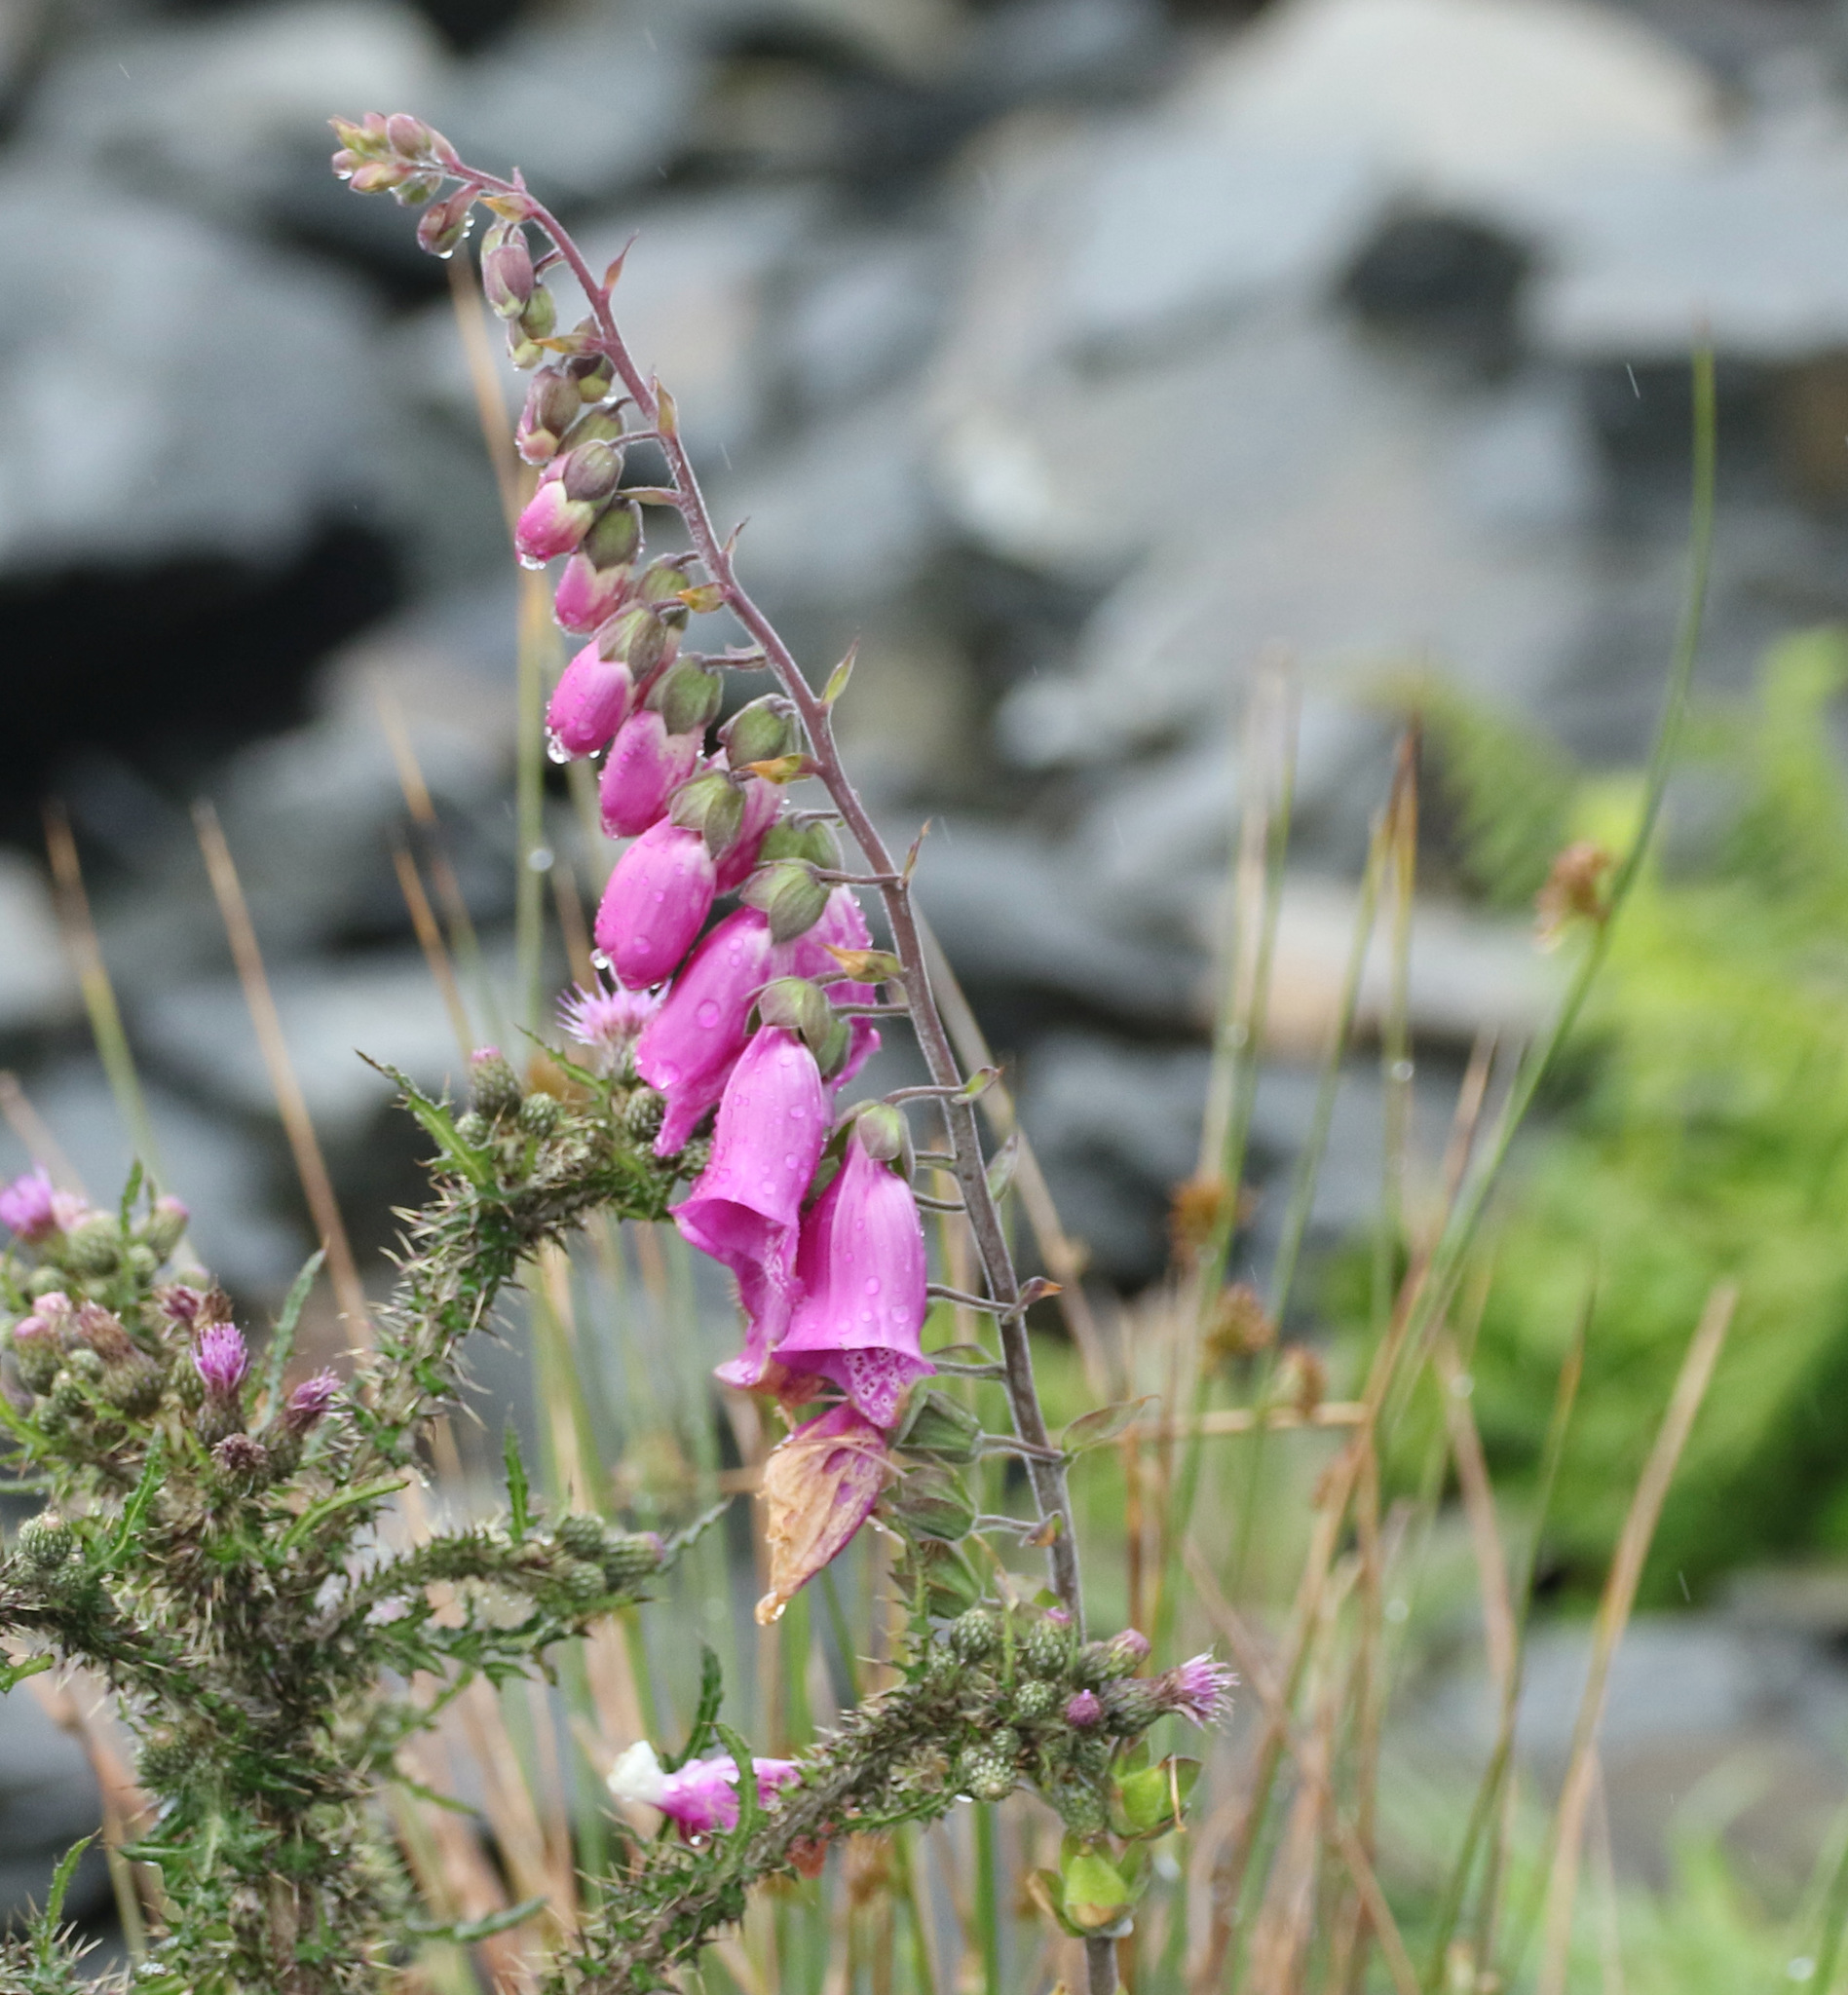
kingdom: Plantae
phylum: Tracheophyta
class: Magnoliopsida
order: Lamiales
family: Plantaginaceae
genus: Digitalis
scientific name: Digitalis purpurea
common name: Foxglove
